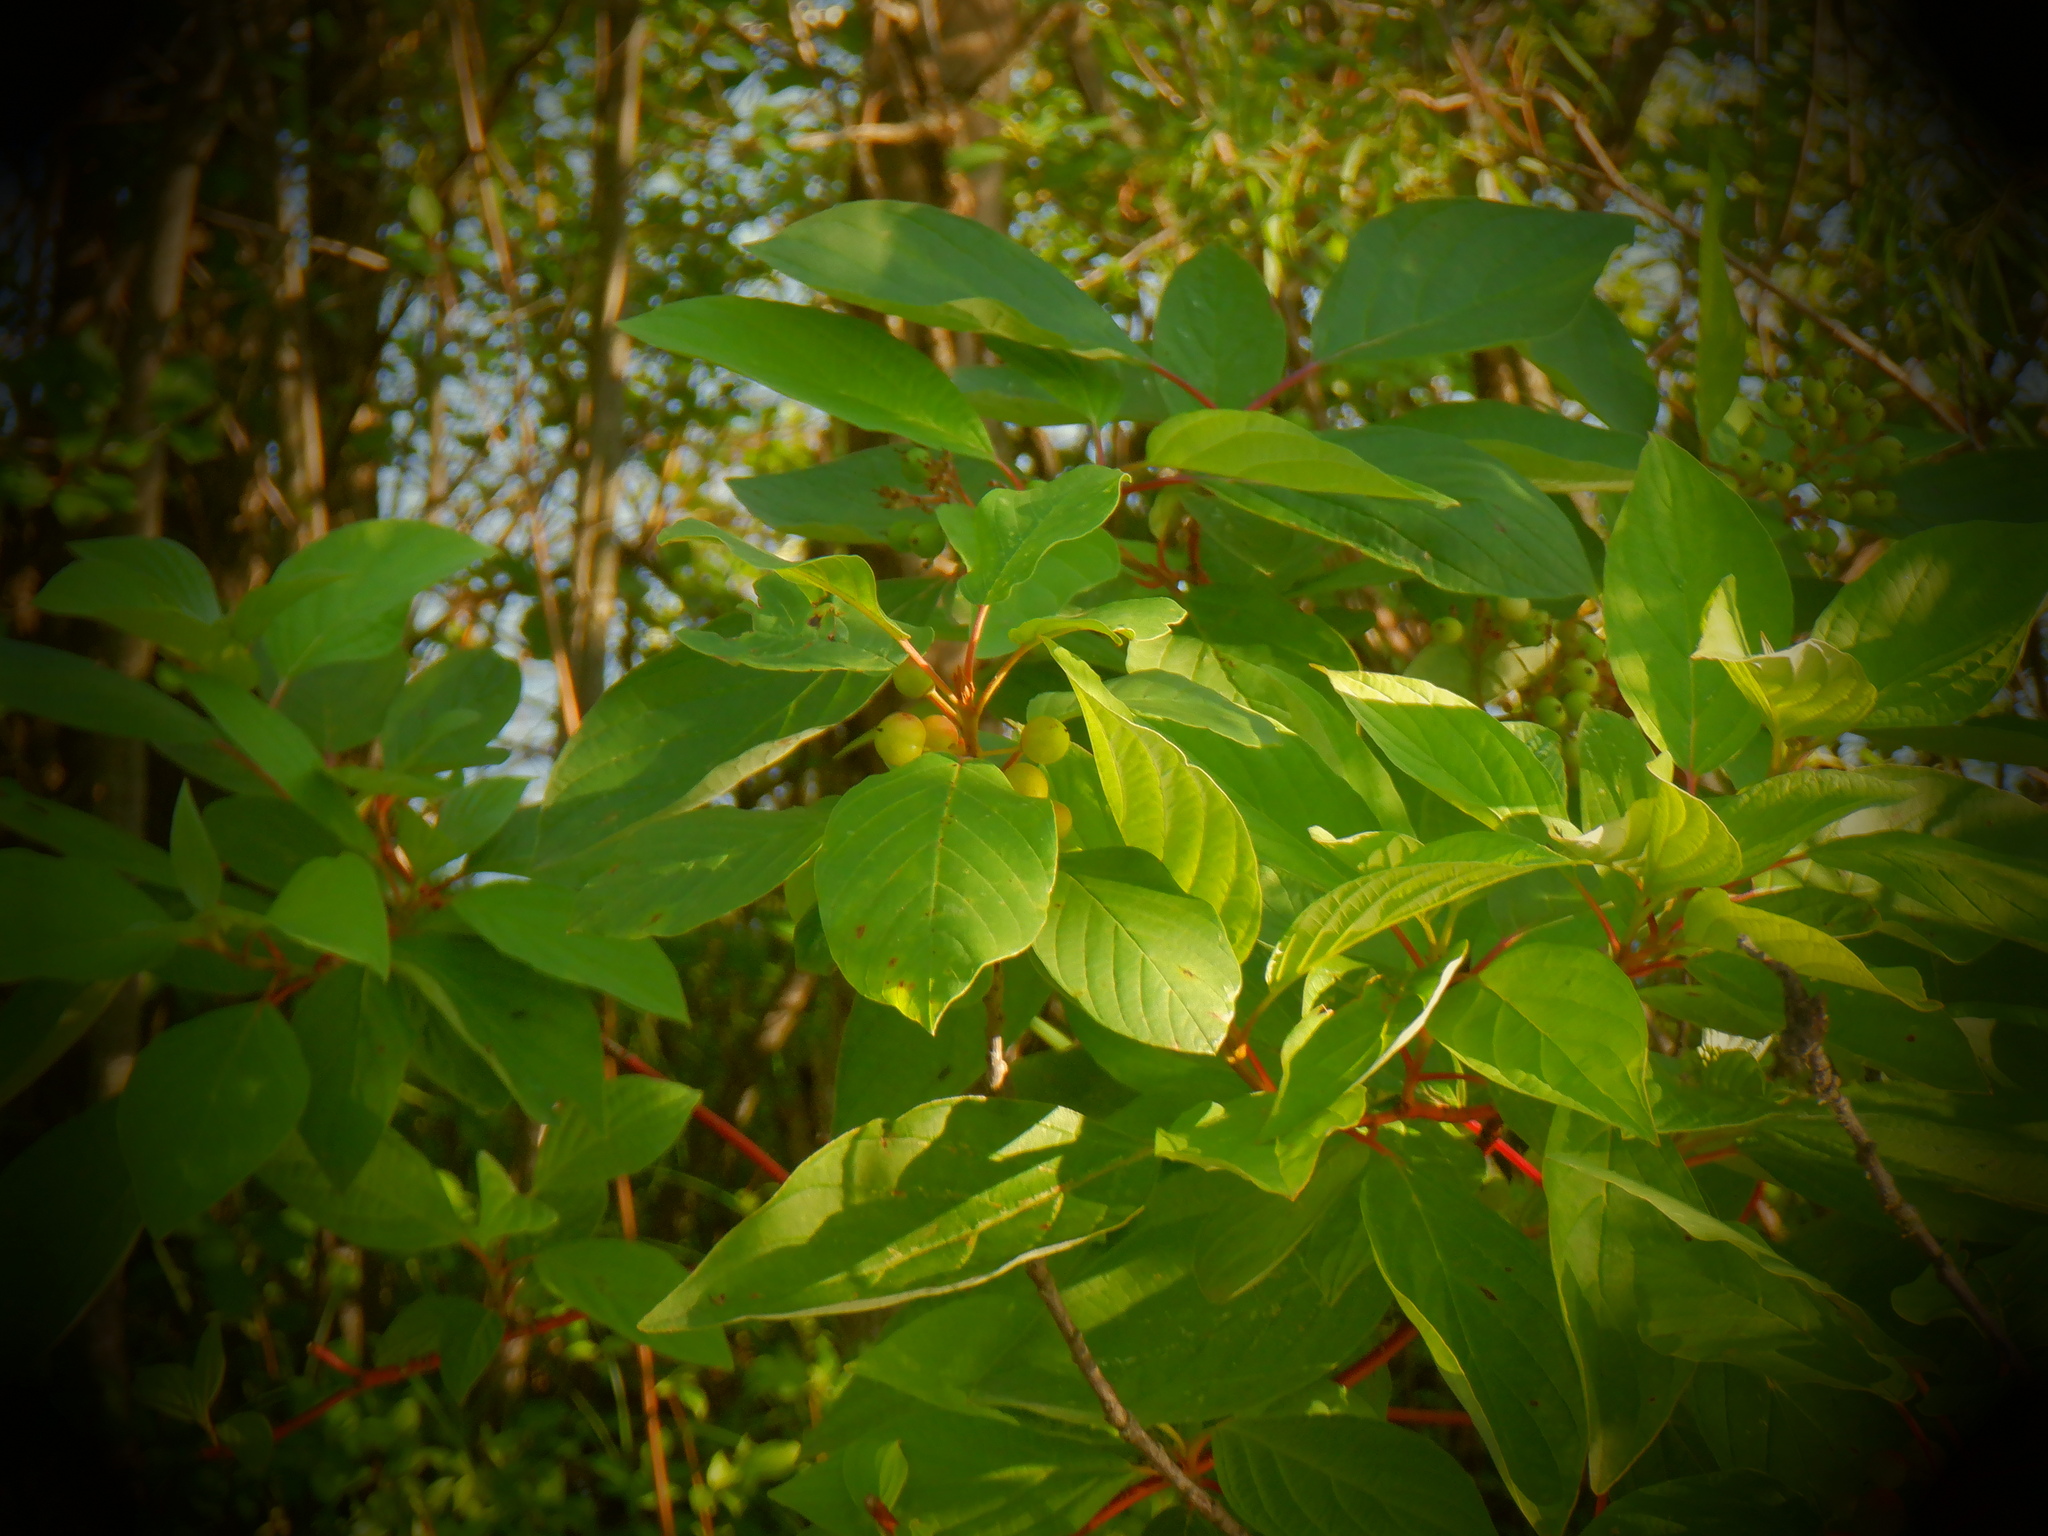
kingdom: Plantae
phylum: Tracheophyta
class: Magnoliopsida
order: Rosales
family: Rhamnaceae
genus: Frangula
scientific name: Frangula alnus
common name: Alder buckthorn
